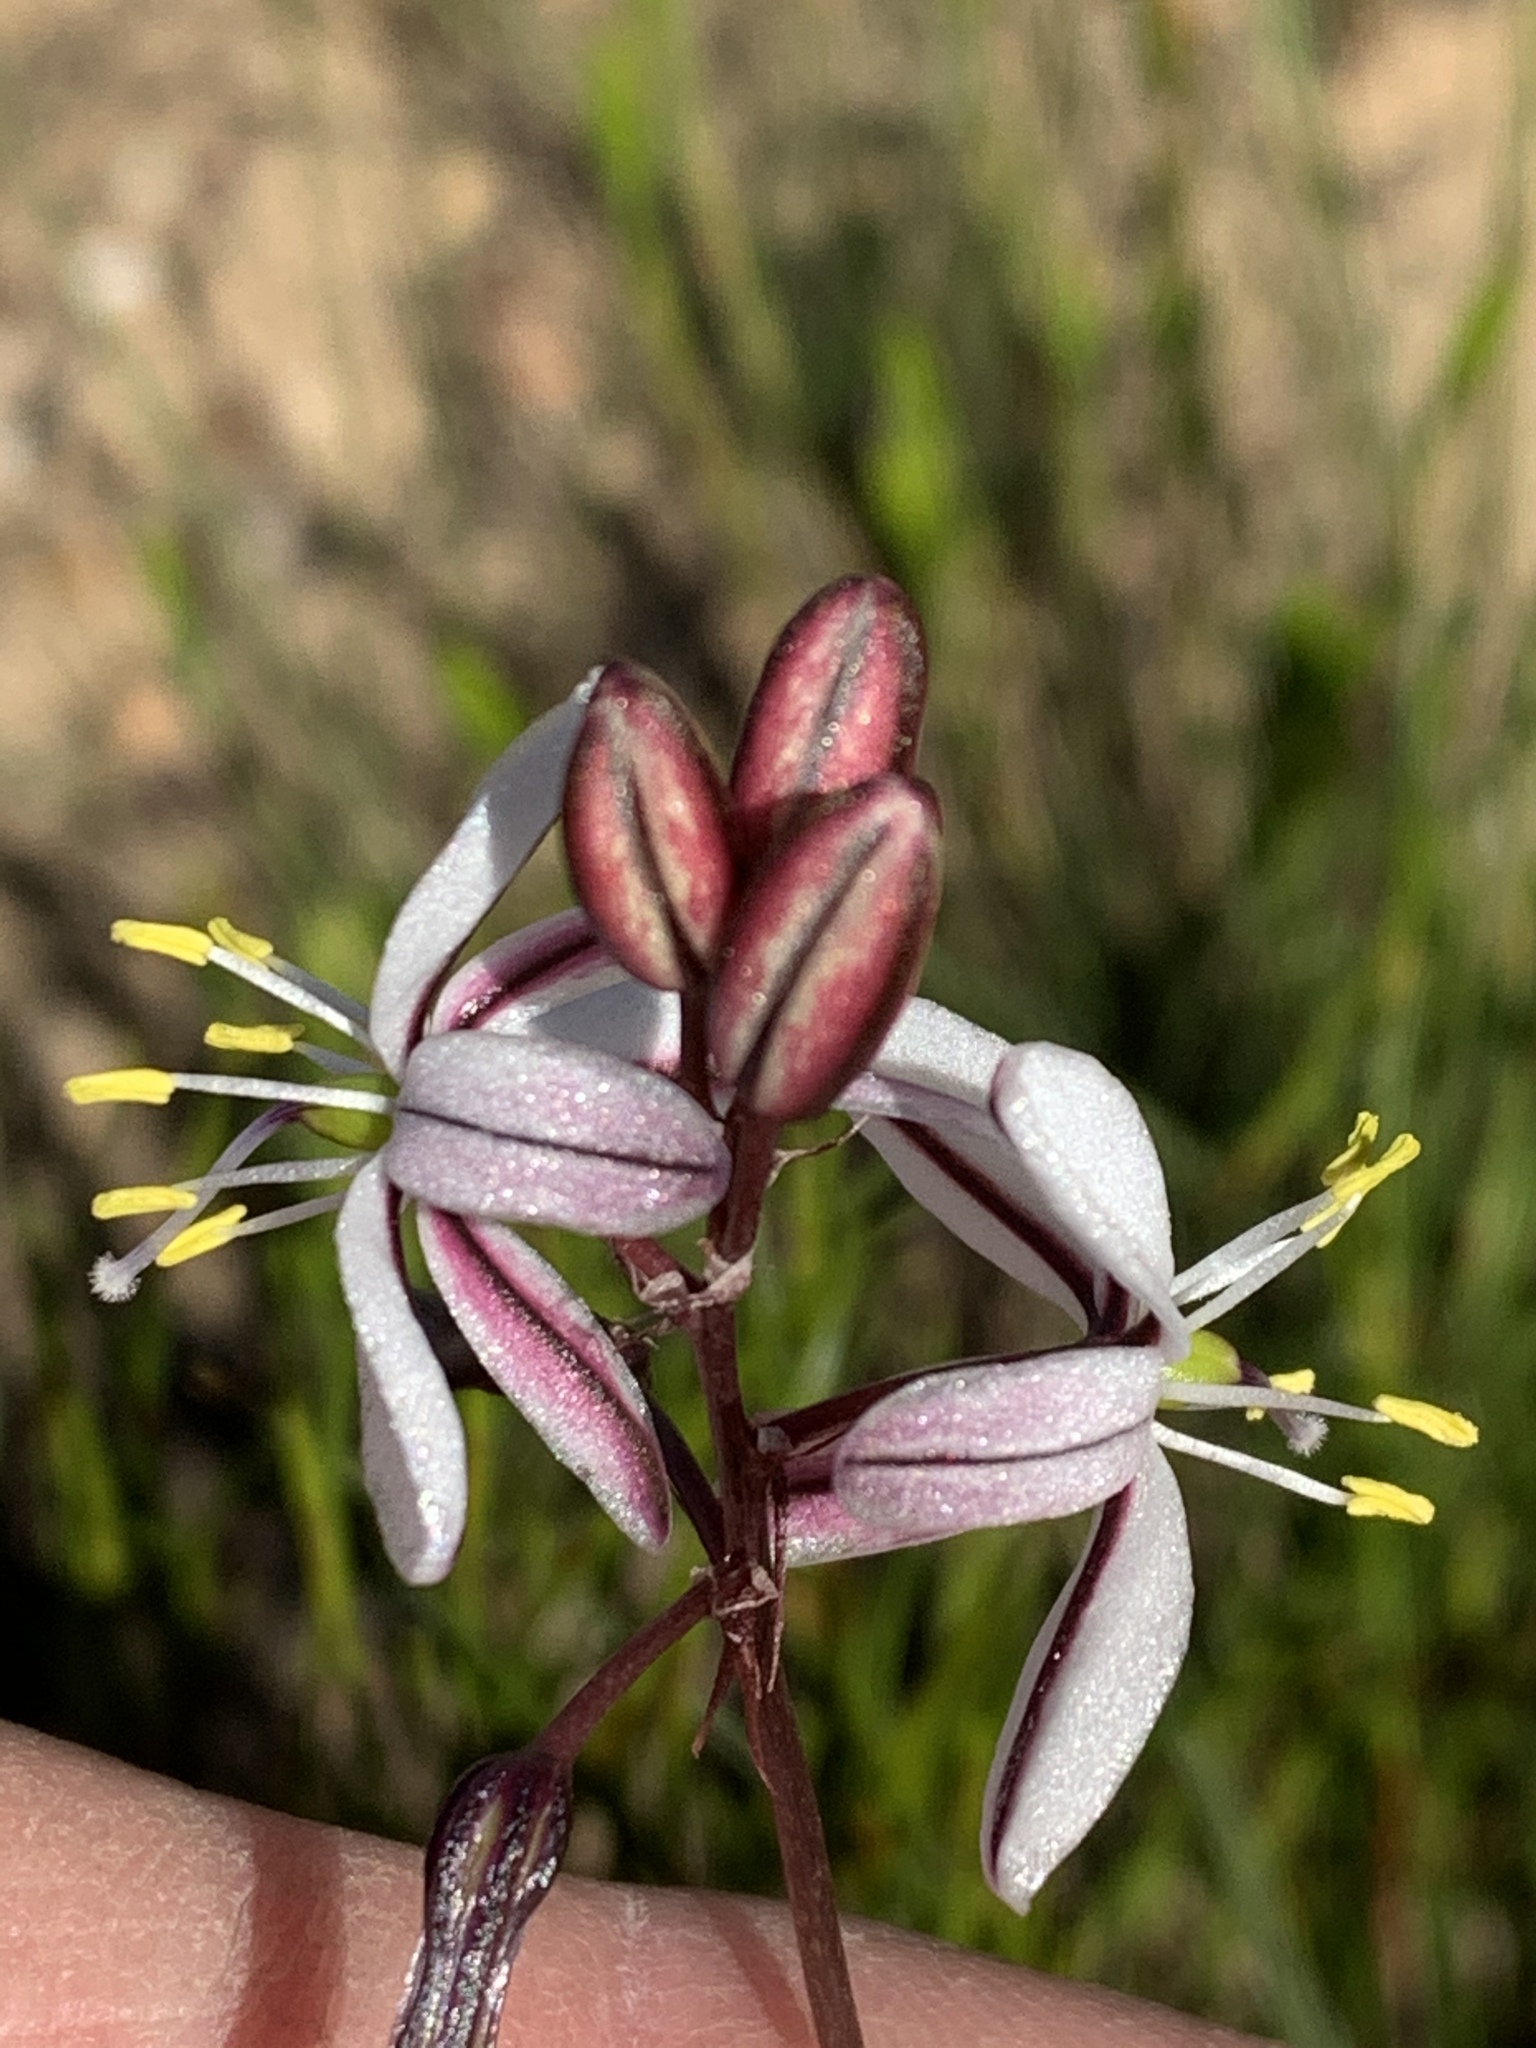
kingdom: Plantae
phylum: Tracheophyta
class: Liliopsida
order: Asparagales
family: Asparagaceae
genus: Drimia
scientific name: Drimia exuviata
